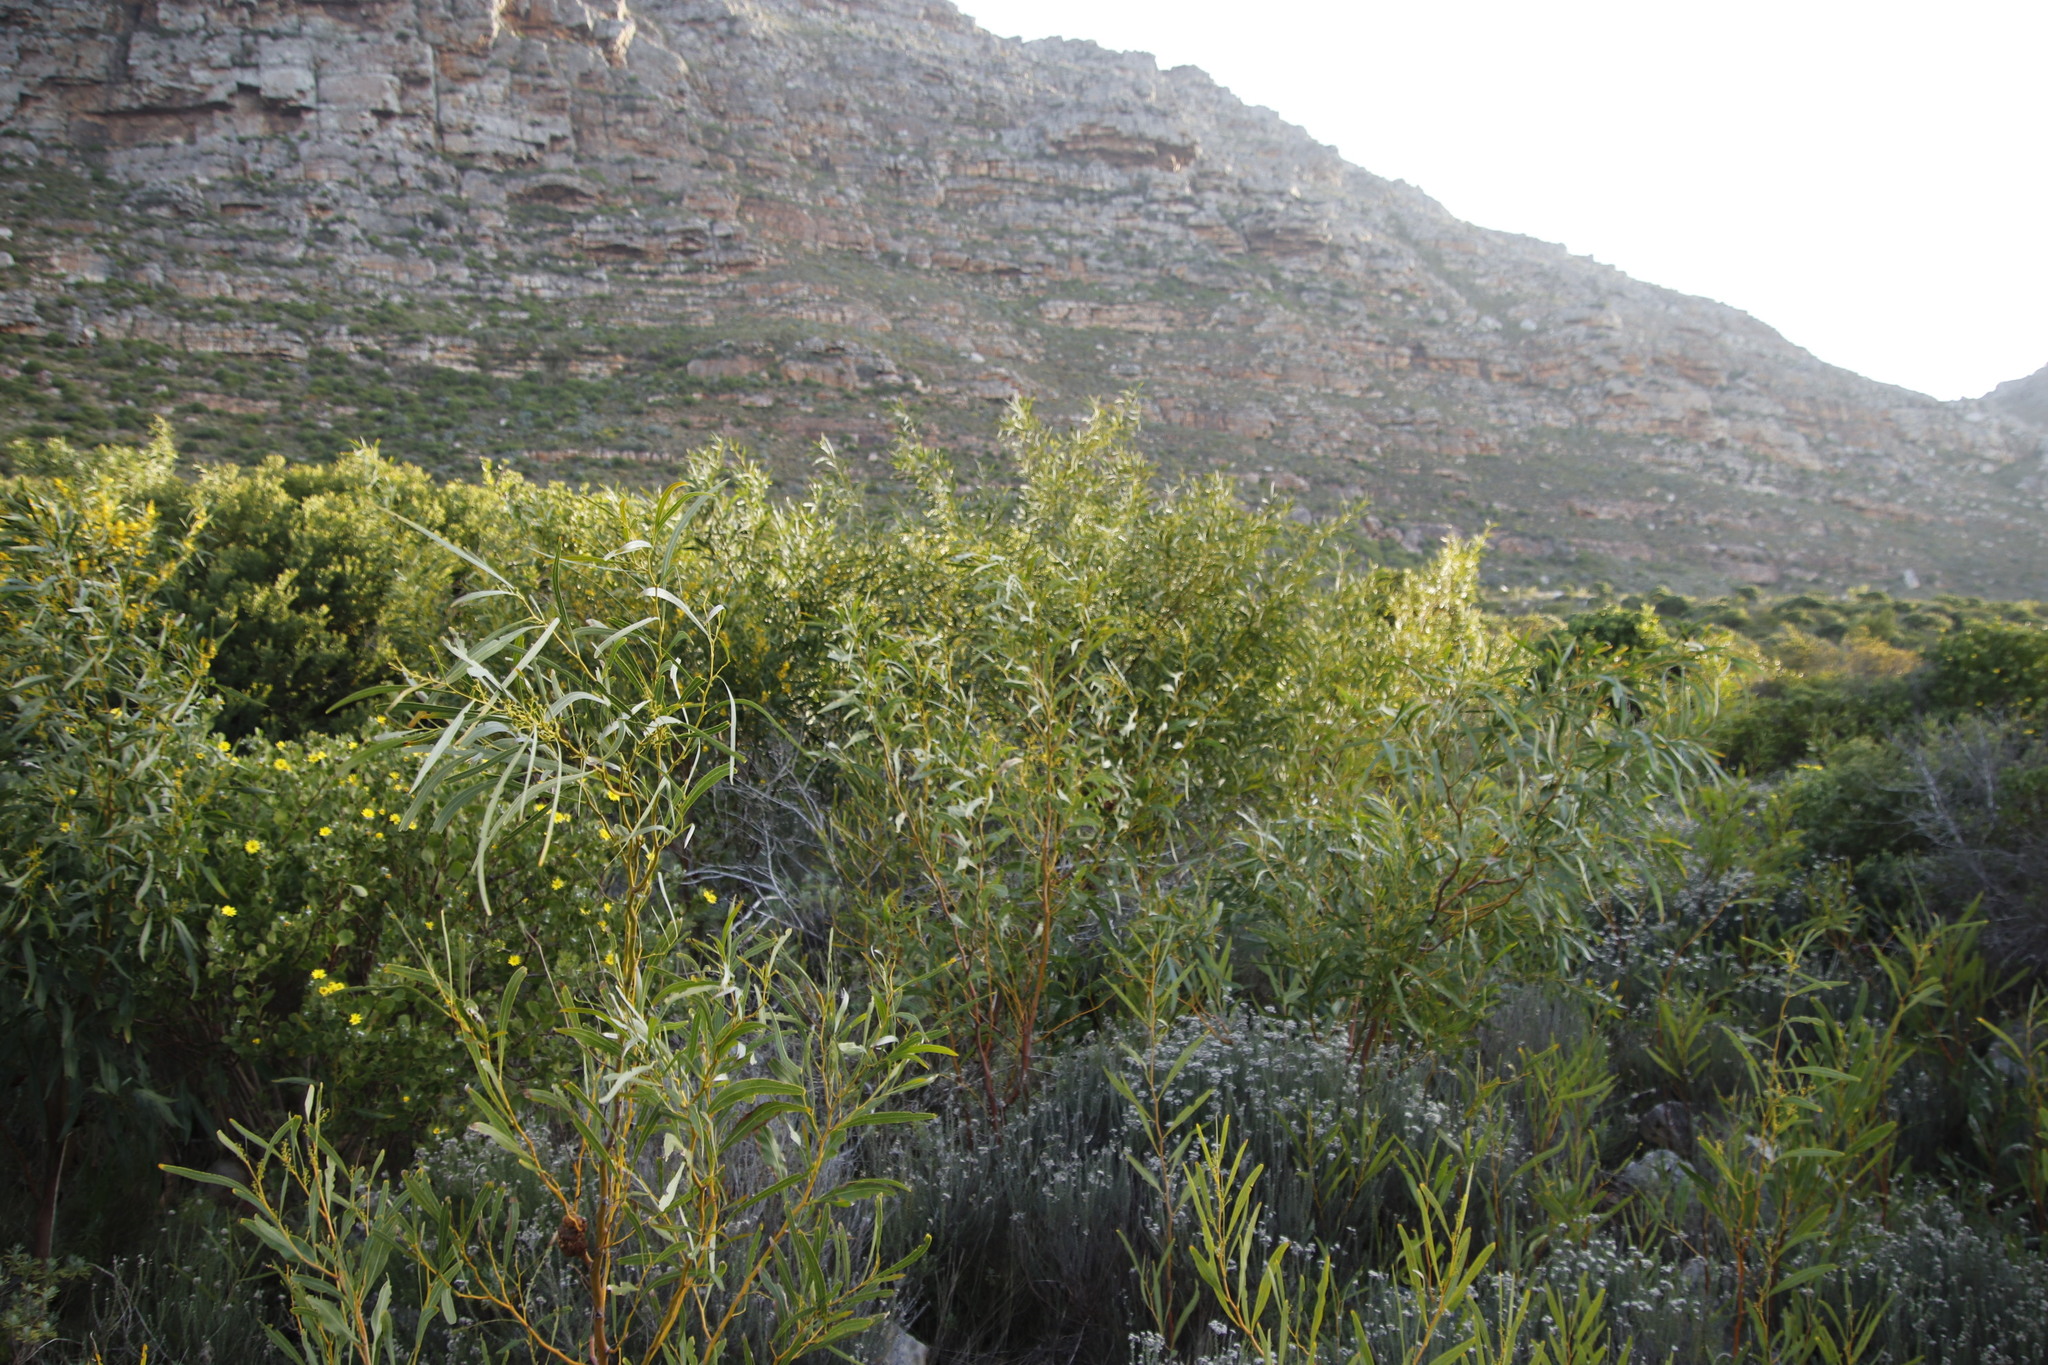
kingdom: Plantae
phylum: Tracheophyta
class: Magnoliopsida
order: Fabales
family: Fabaceae
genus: Acacia
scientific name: Acacia saligna
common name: Orange wattle
